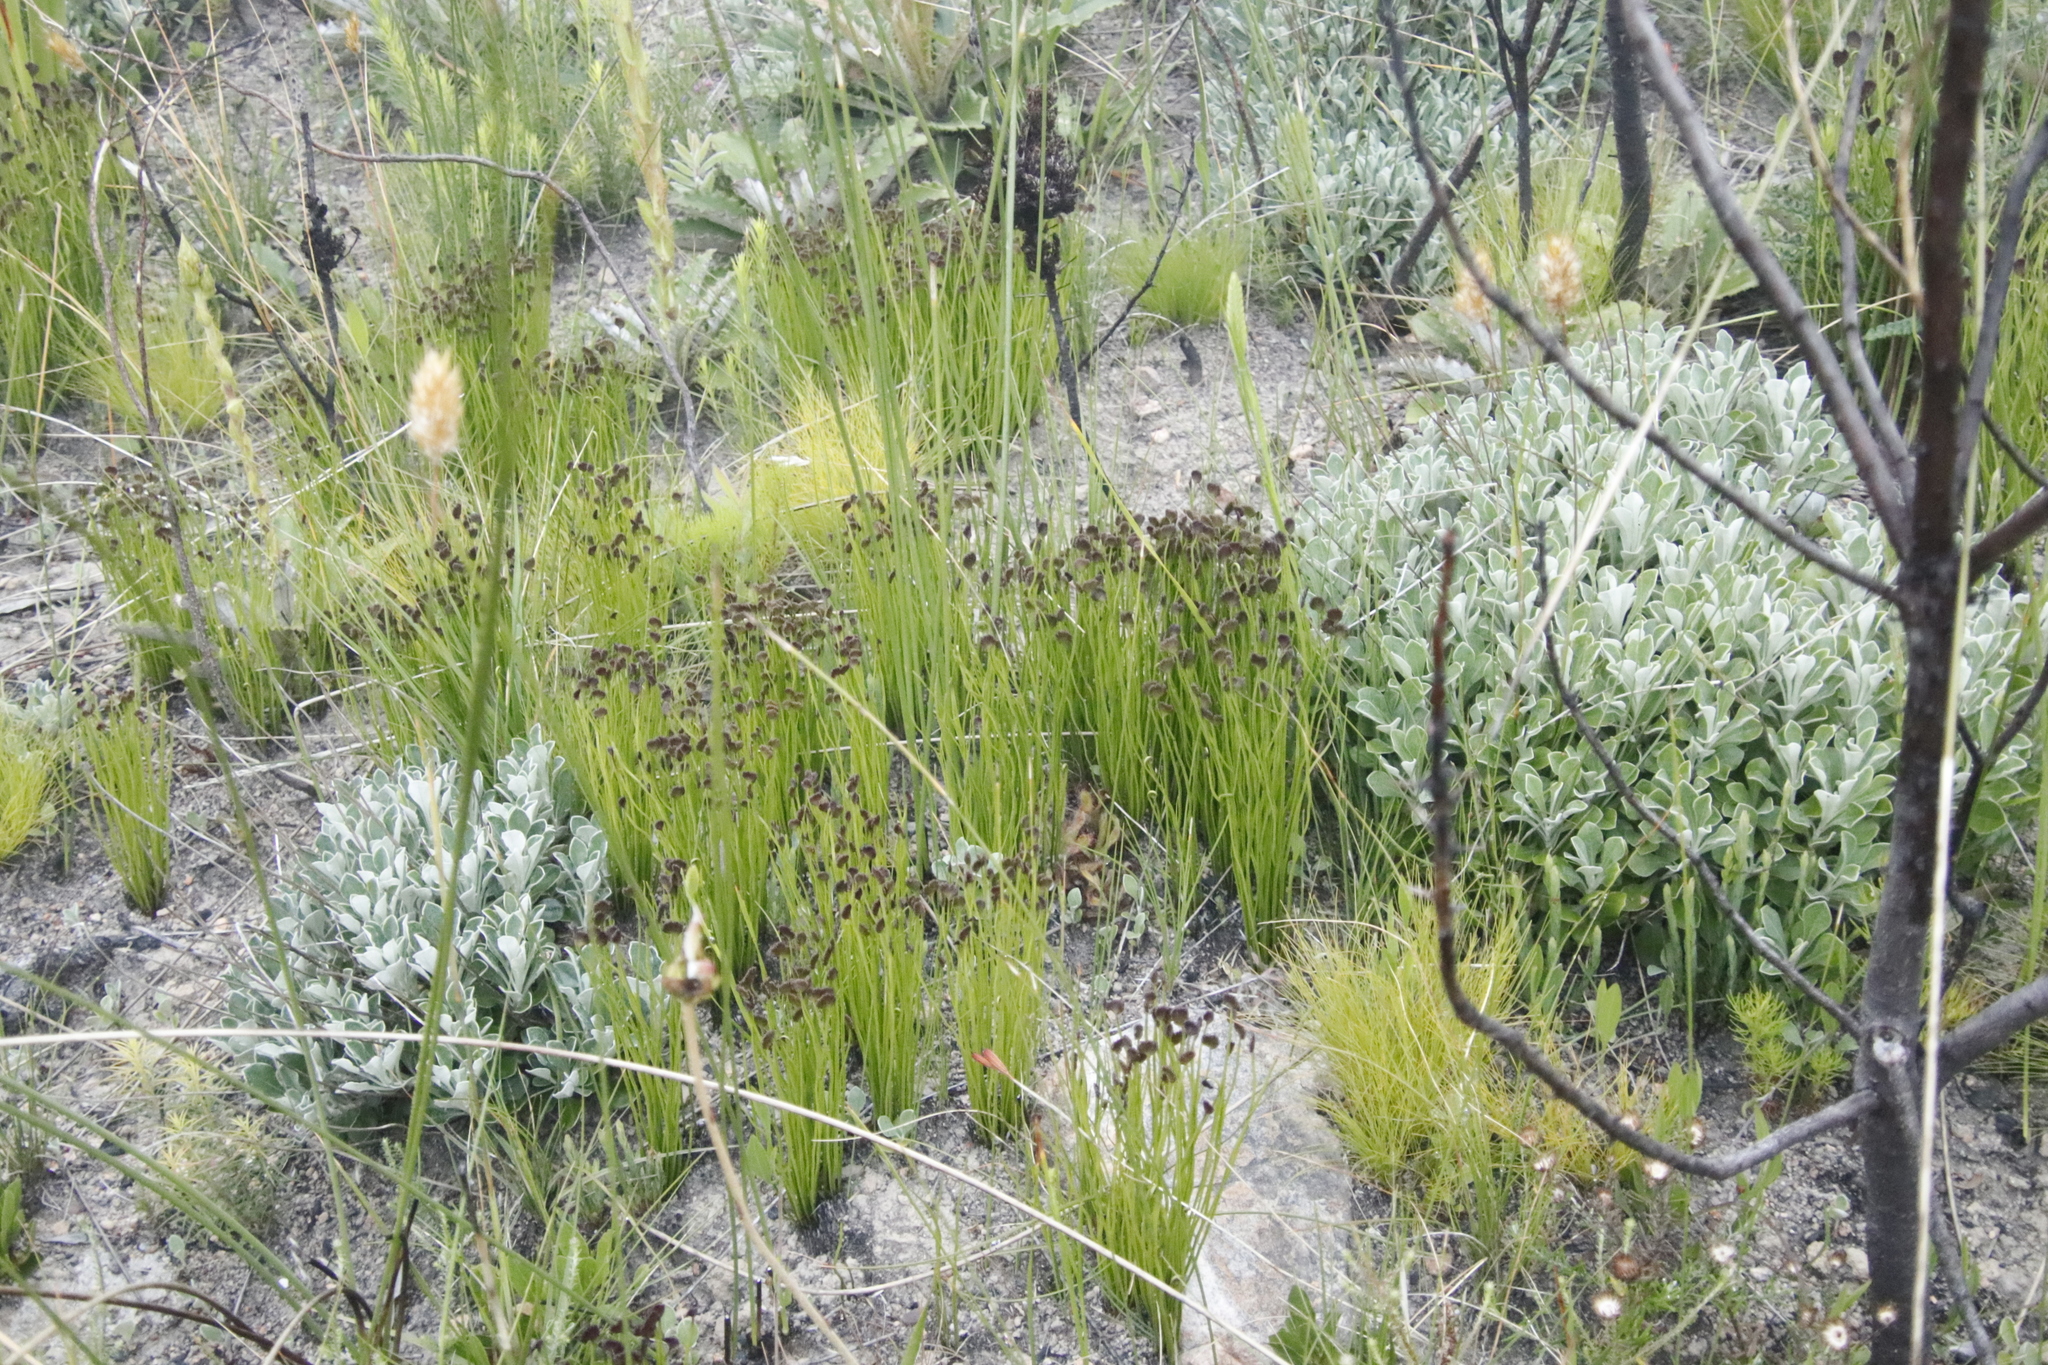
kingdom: Plantae
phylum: Tracheophyta
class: Polypodiopsida
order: Schizaeales
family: Schizaeaceae
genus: Schizaea
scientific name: Schizaea pectinata
